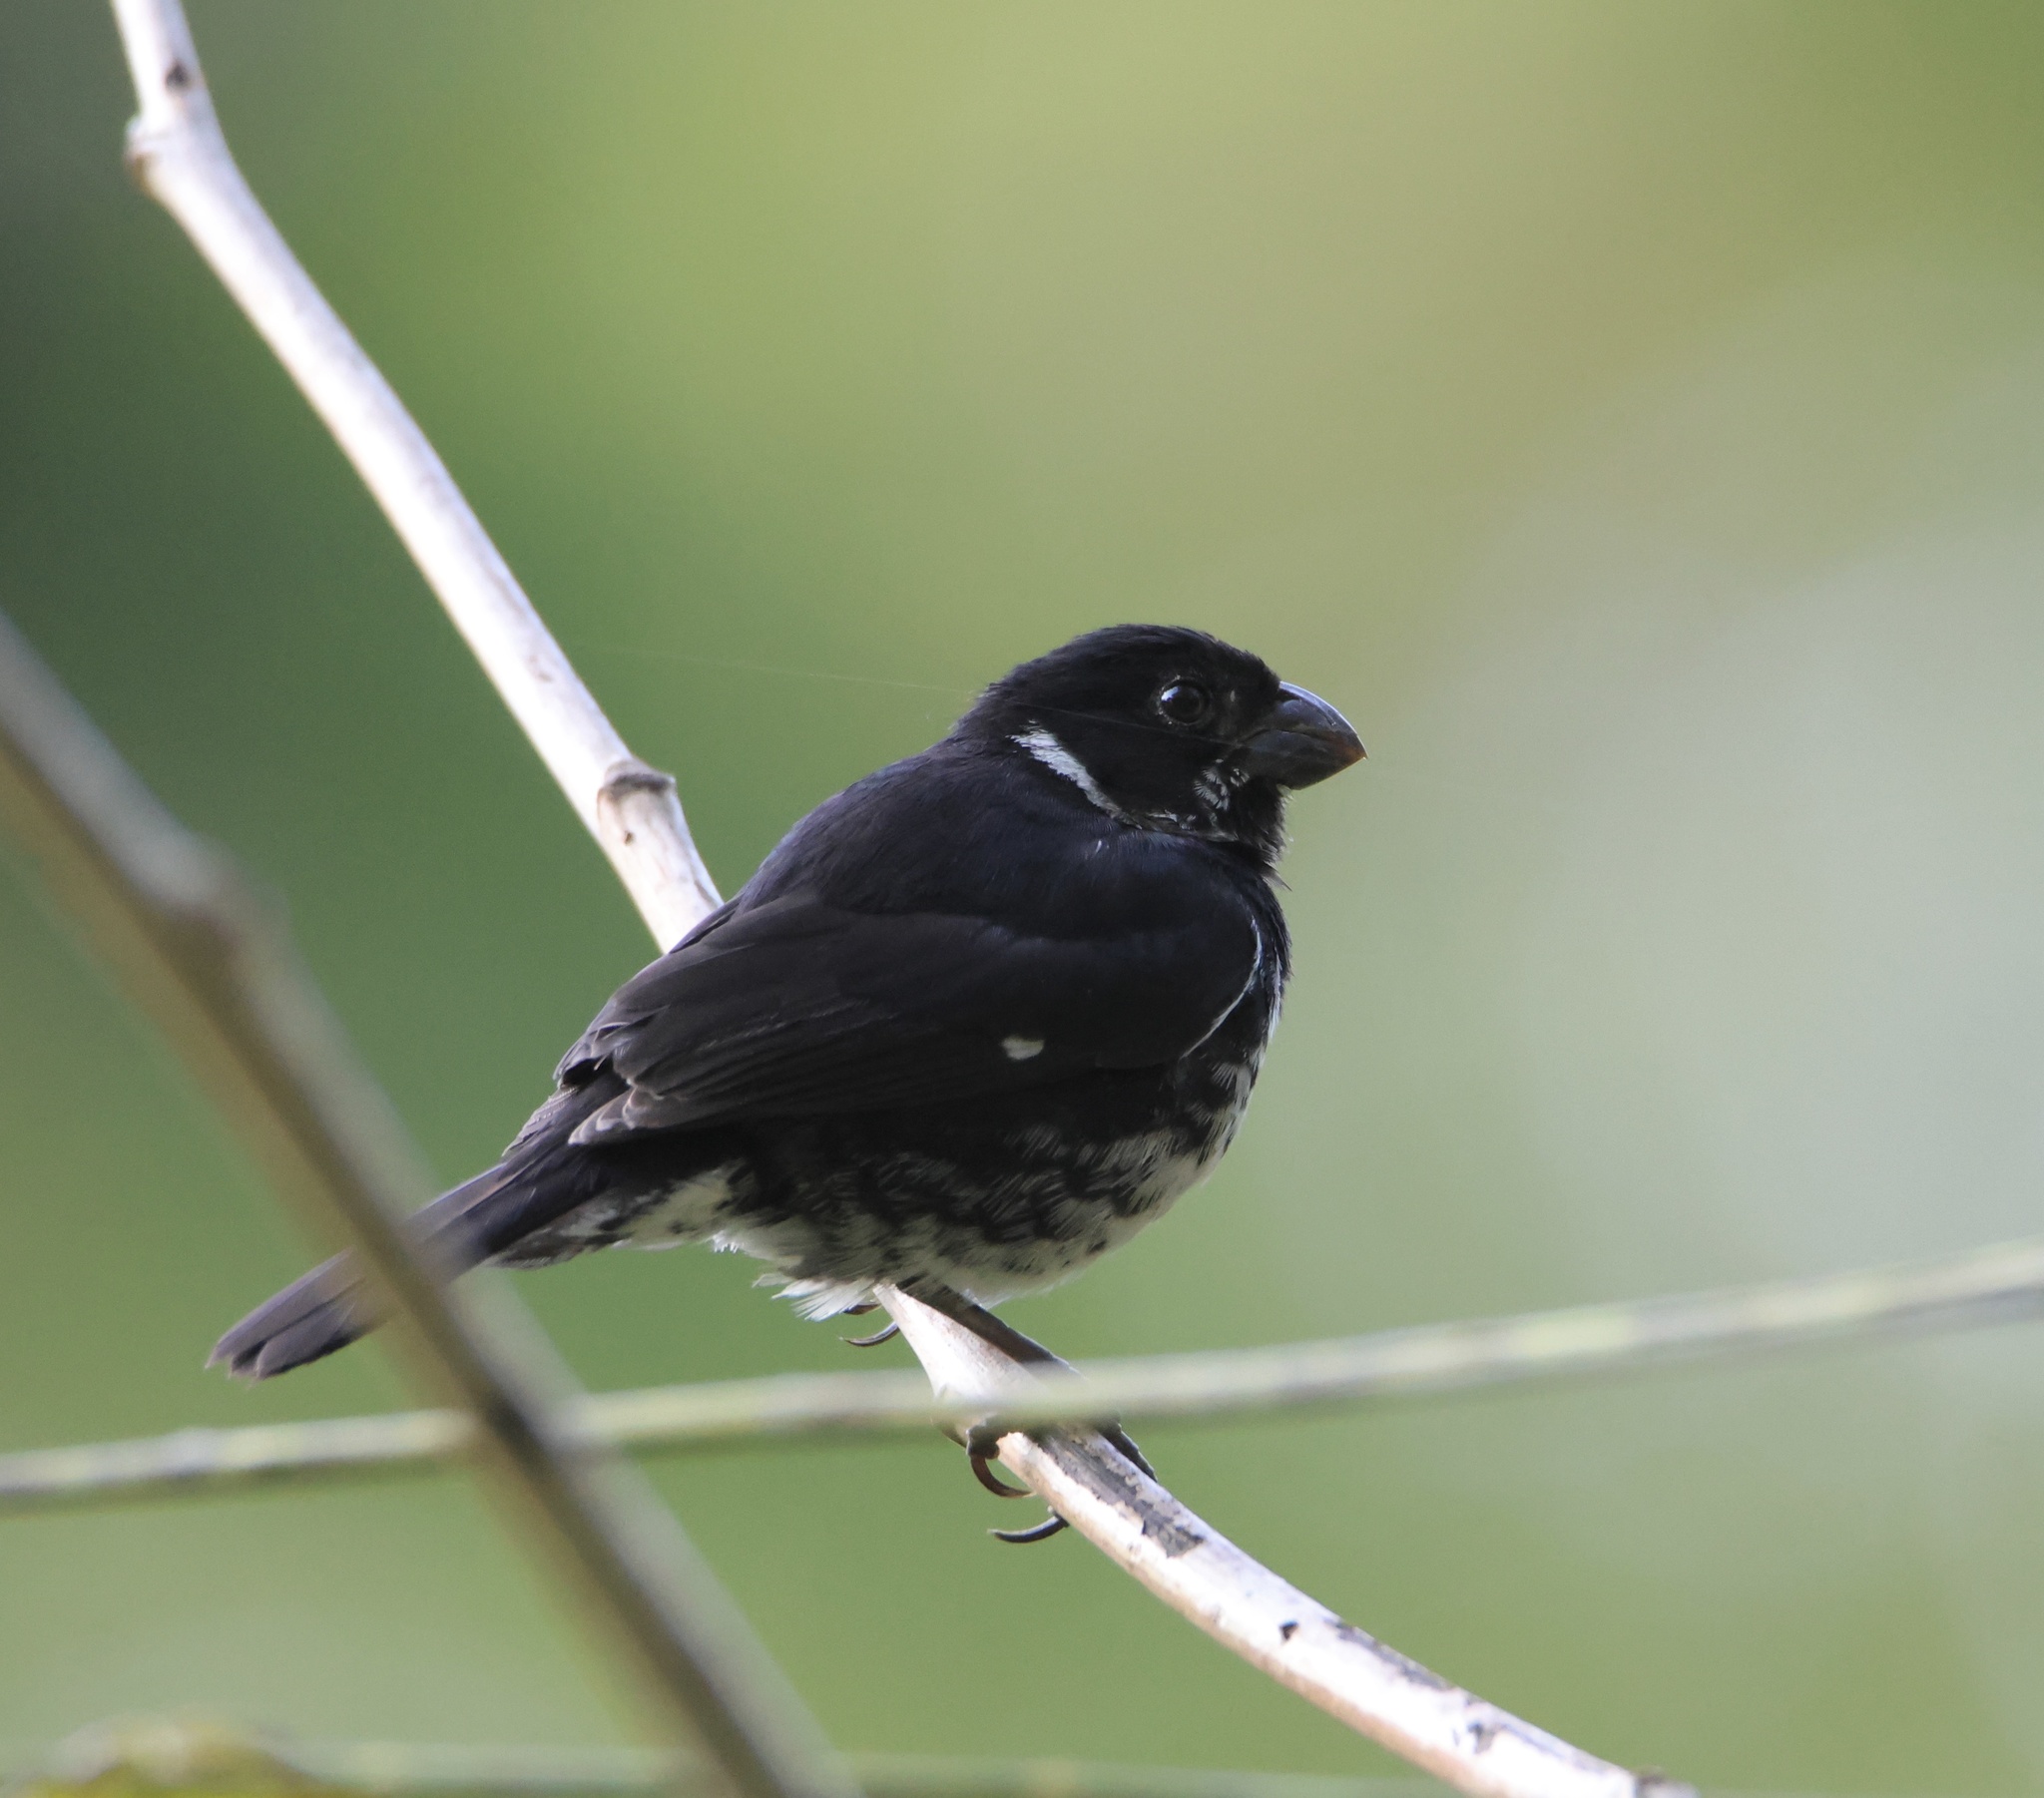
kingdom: Animalia
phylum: Chordata
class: Aves
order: Passeriformes
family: Thraupidae
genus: Sporophila
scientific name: Sporophila corvina
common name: Variable seedeater
